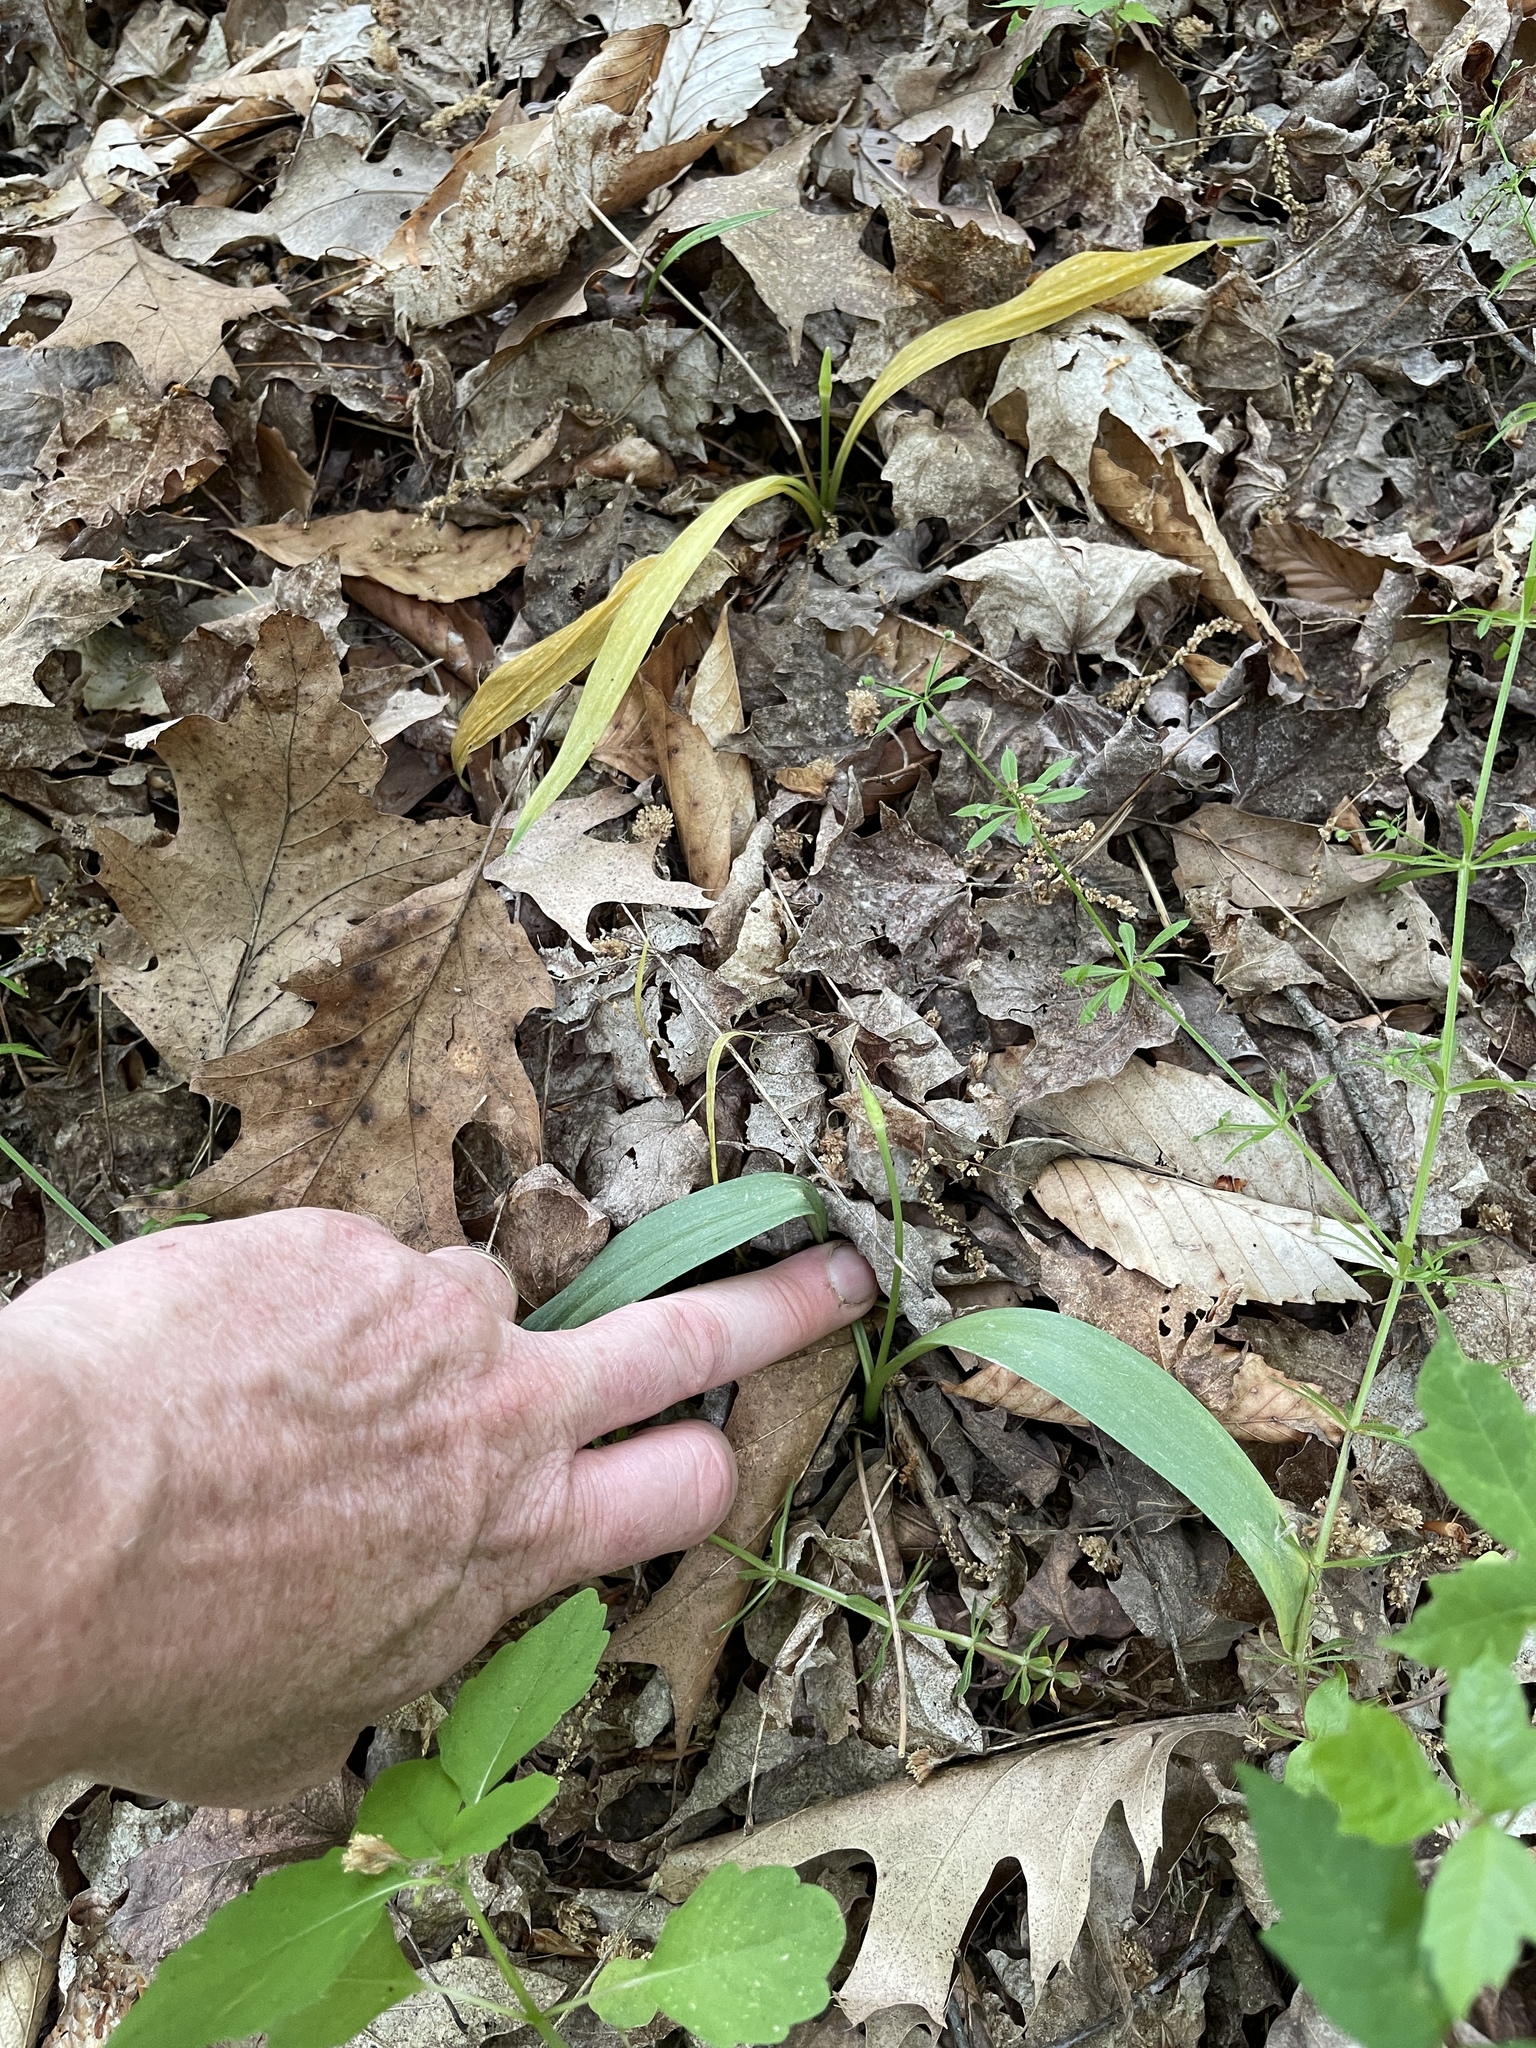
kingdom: Plantae
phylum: Tracheophyta
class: Liliopsida
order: Asparagales
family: Amaryllidaceae
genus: Allium
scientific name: Allium tricoccum
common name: Ramp
